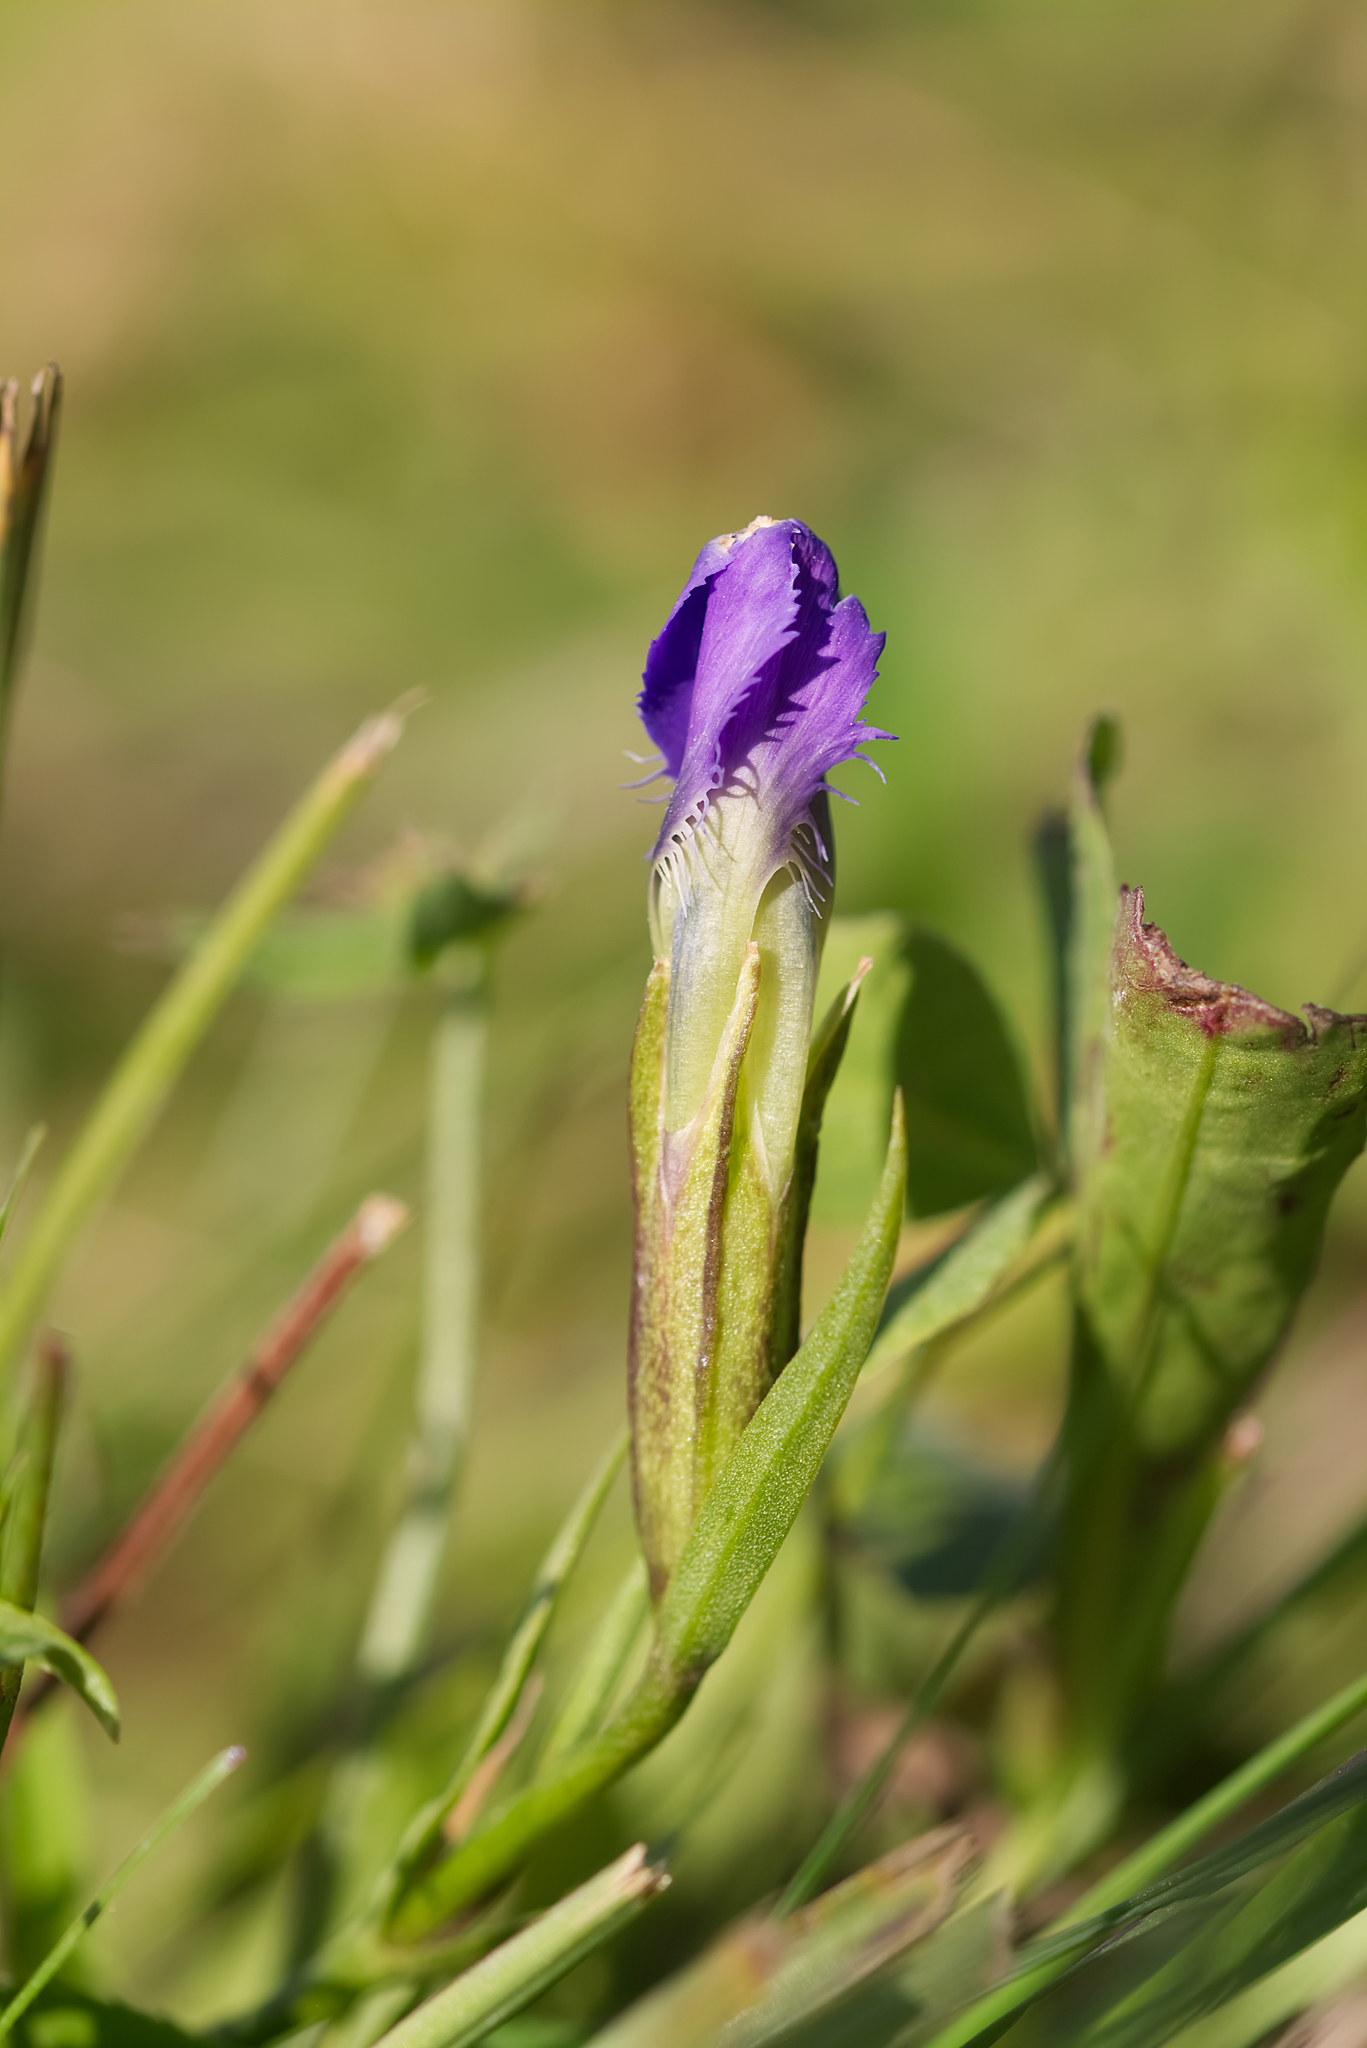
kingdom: Plantae
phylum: Tracheophyta
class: Magnoliopsida
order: Gentianales
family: Gentianaceae
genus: Gentianopsis
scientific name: Gentianopsis ciliata
